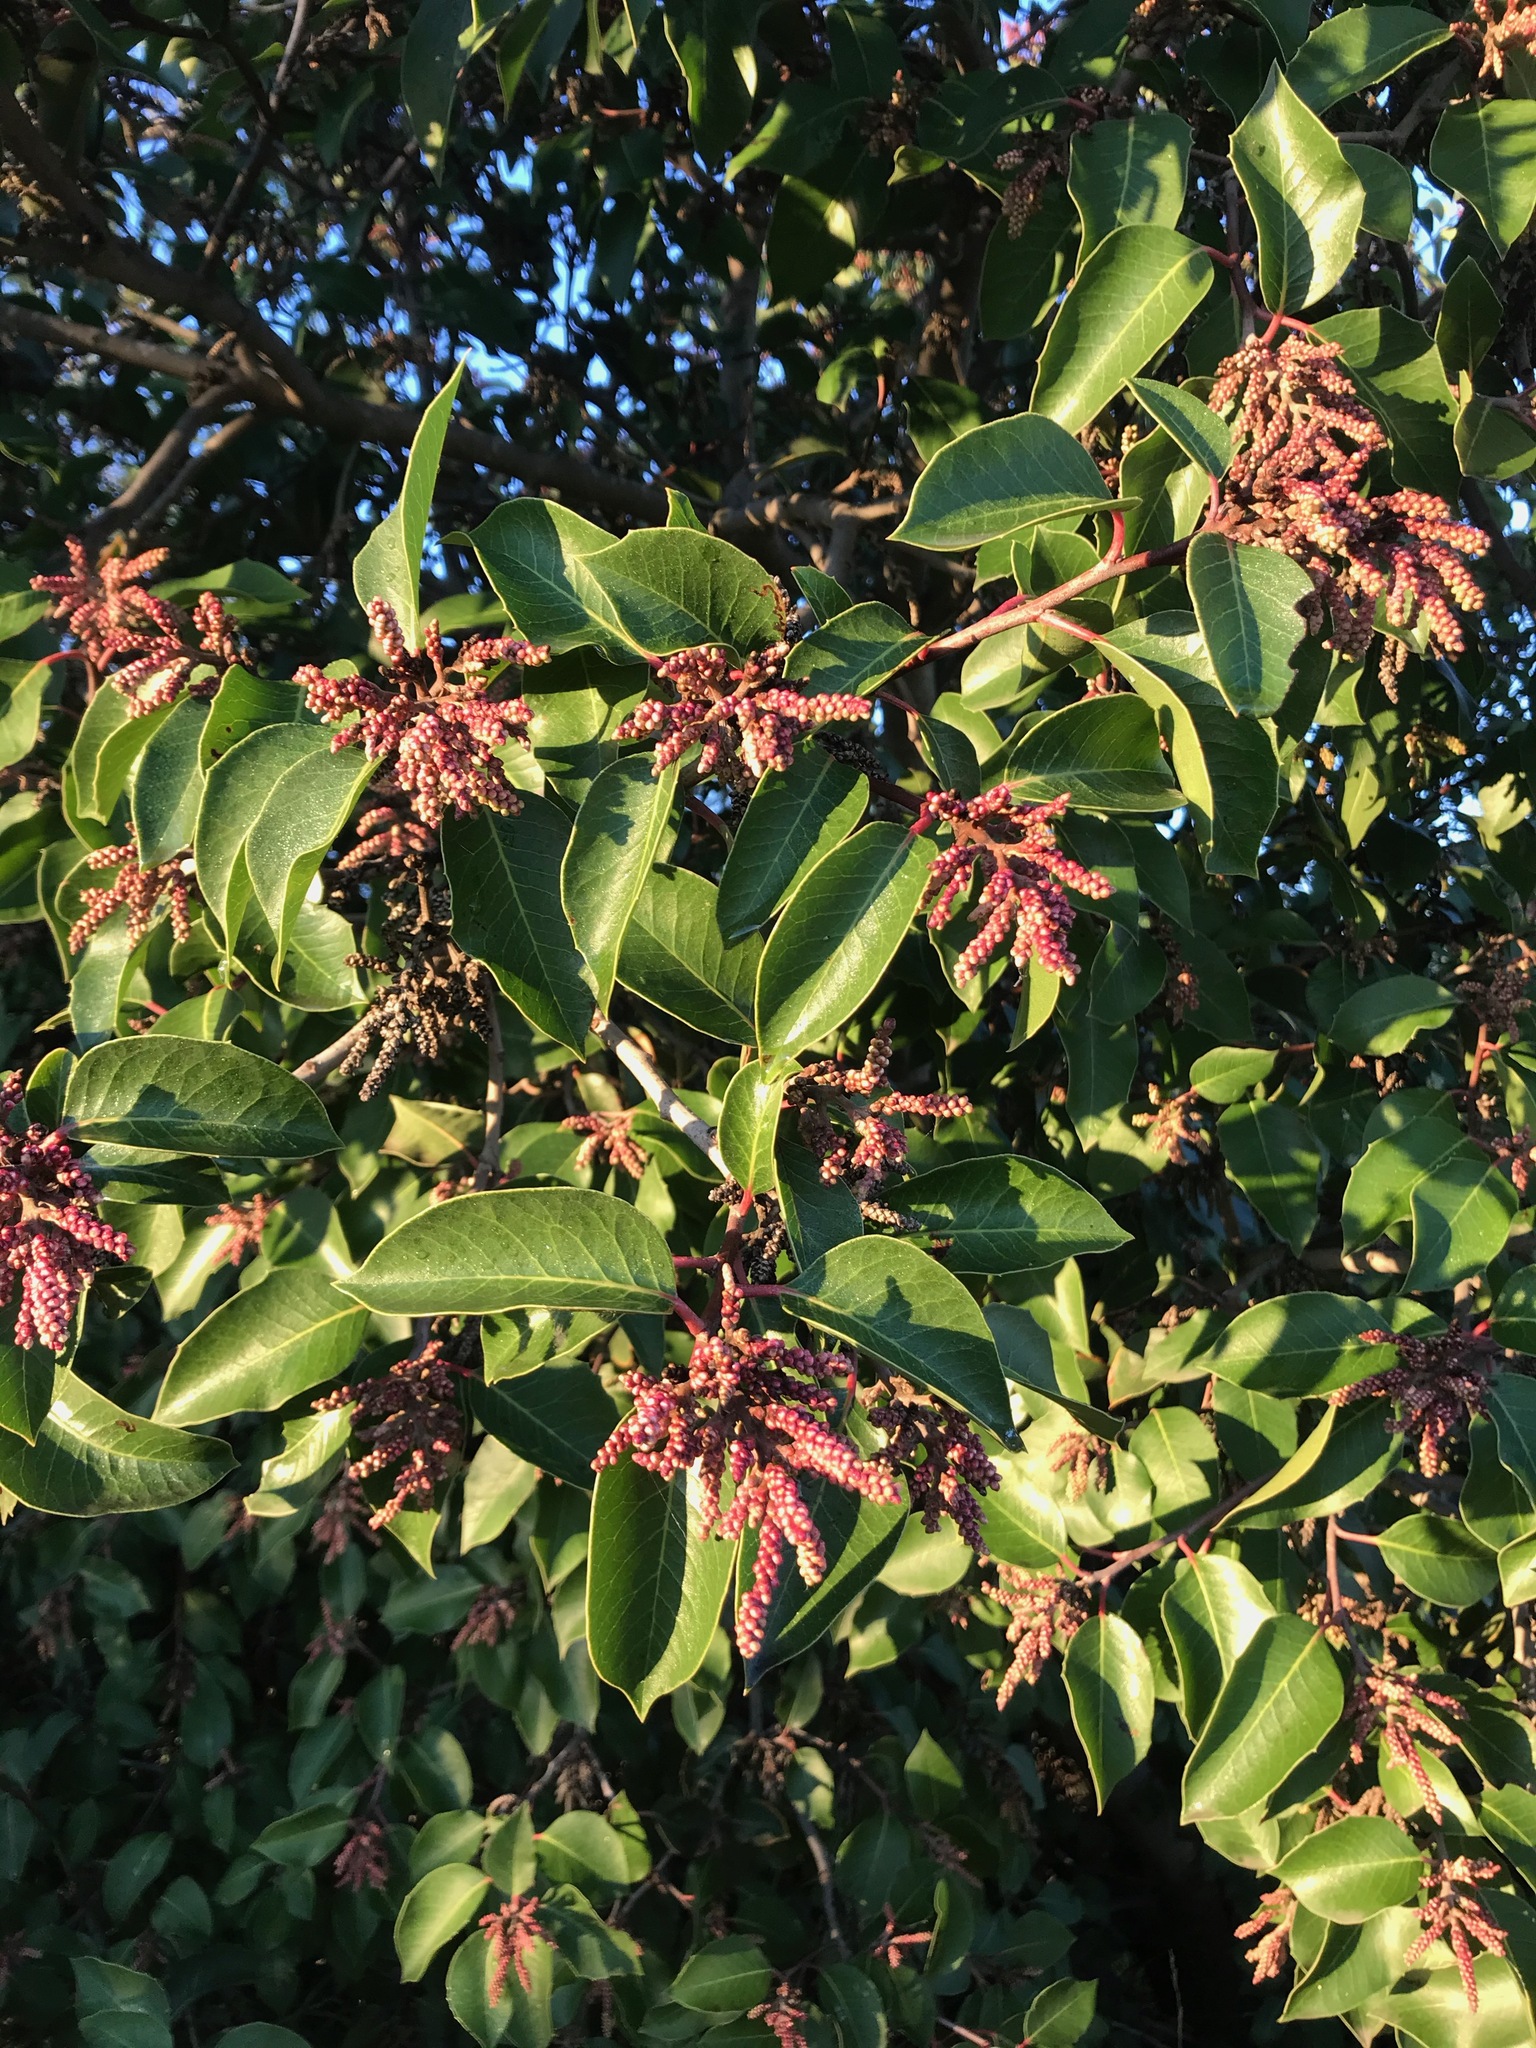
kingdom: Plantae
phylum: Tracheophyta
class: Magnoliopsida
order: Sapindales
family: Anacardiaceae
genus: Rhus
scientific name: Rhus ovata
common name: Sugar sumac
